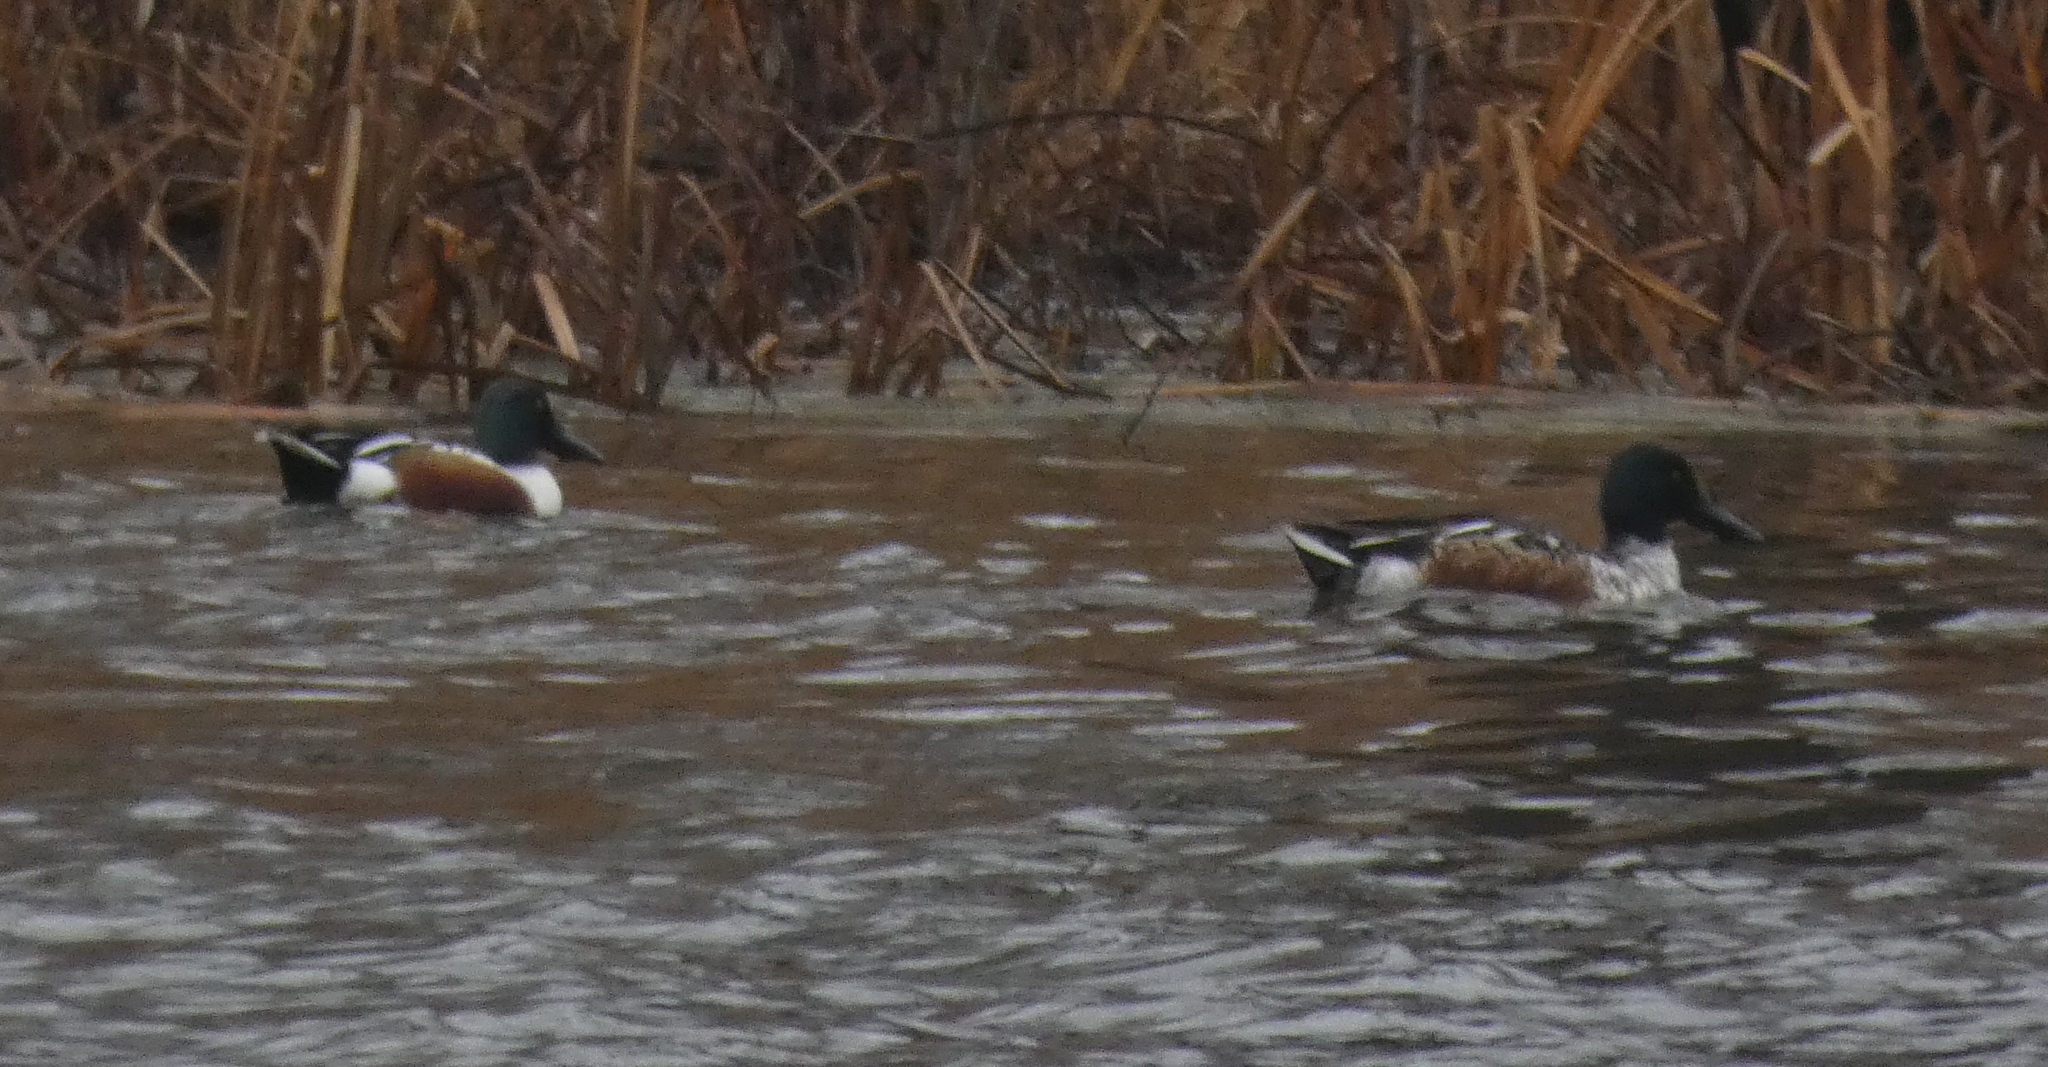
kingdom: Animalia
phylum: Chordata
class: Aves
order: Anseriformes
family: Anatidae
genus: Spatula
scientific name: Spatula clypeata
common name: Northern shoveler
